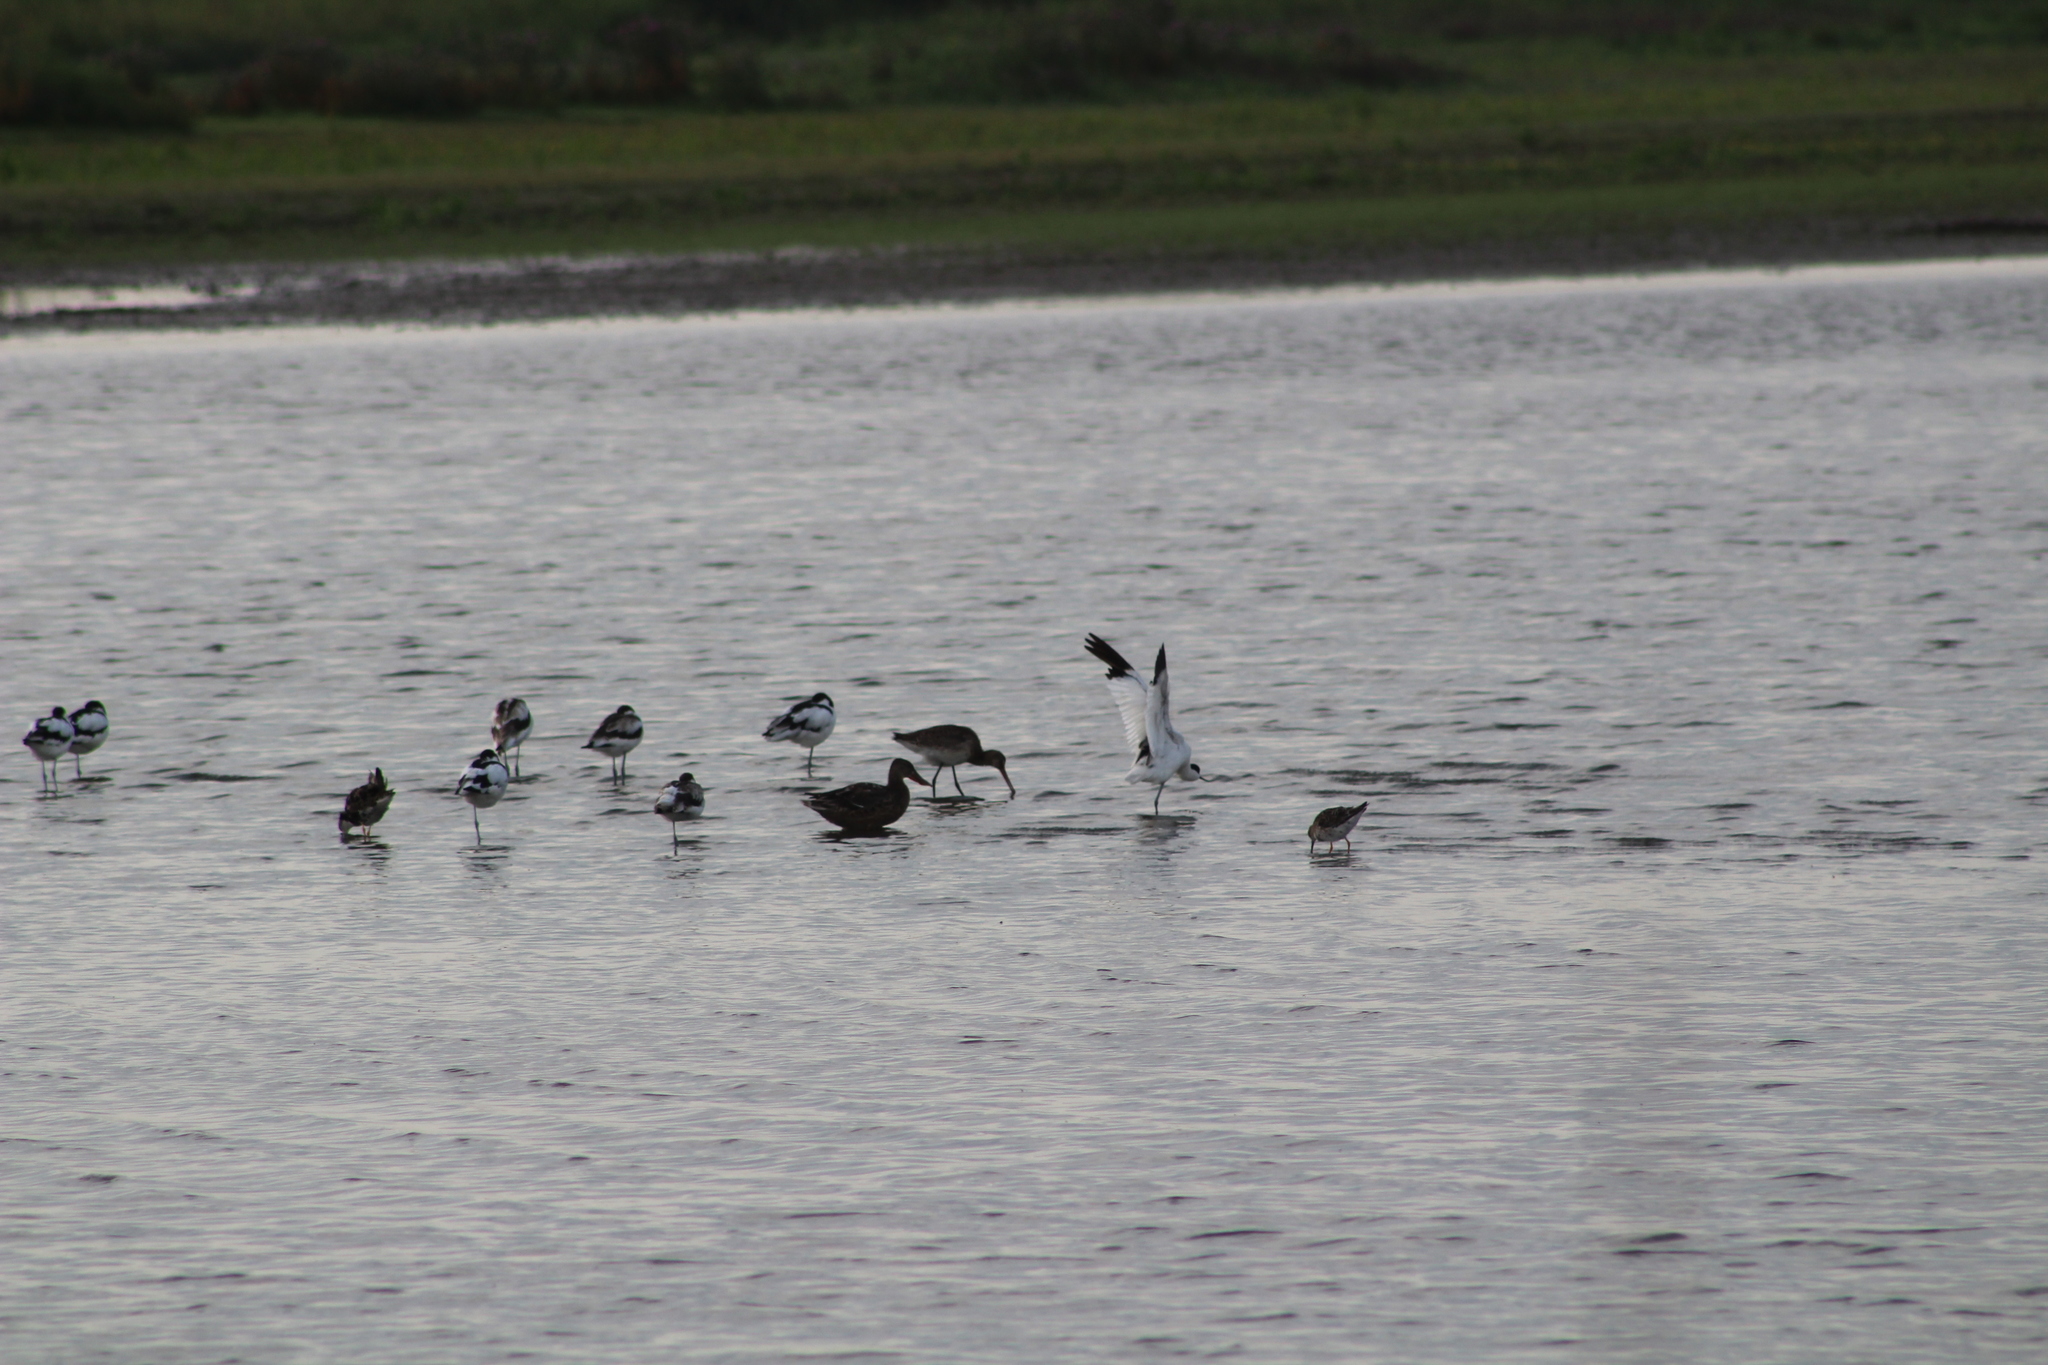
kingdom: Animalia
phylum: Chordata
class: Aves
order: Charadriiformes
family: Scolopacidae
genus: Limosa
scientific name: Limosa limosa
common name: Black-tailed godwit
